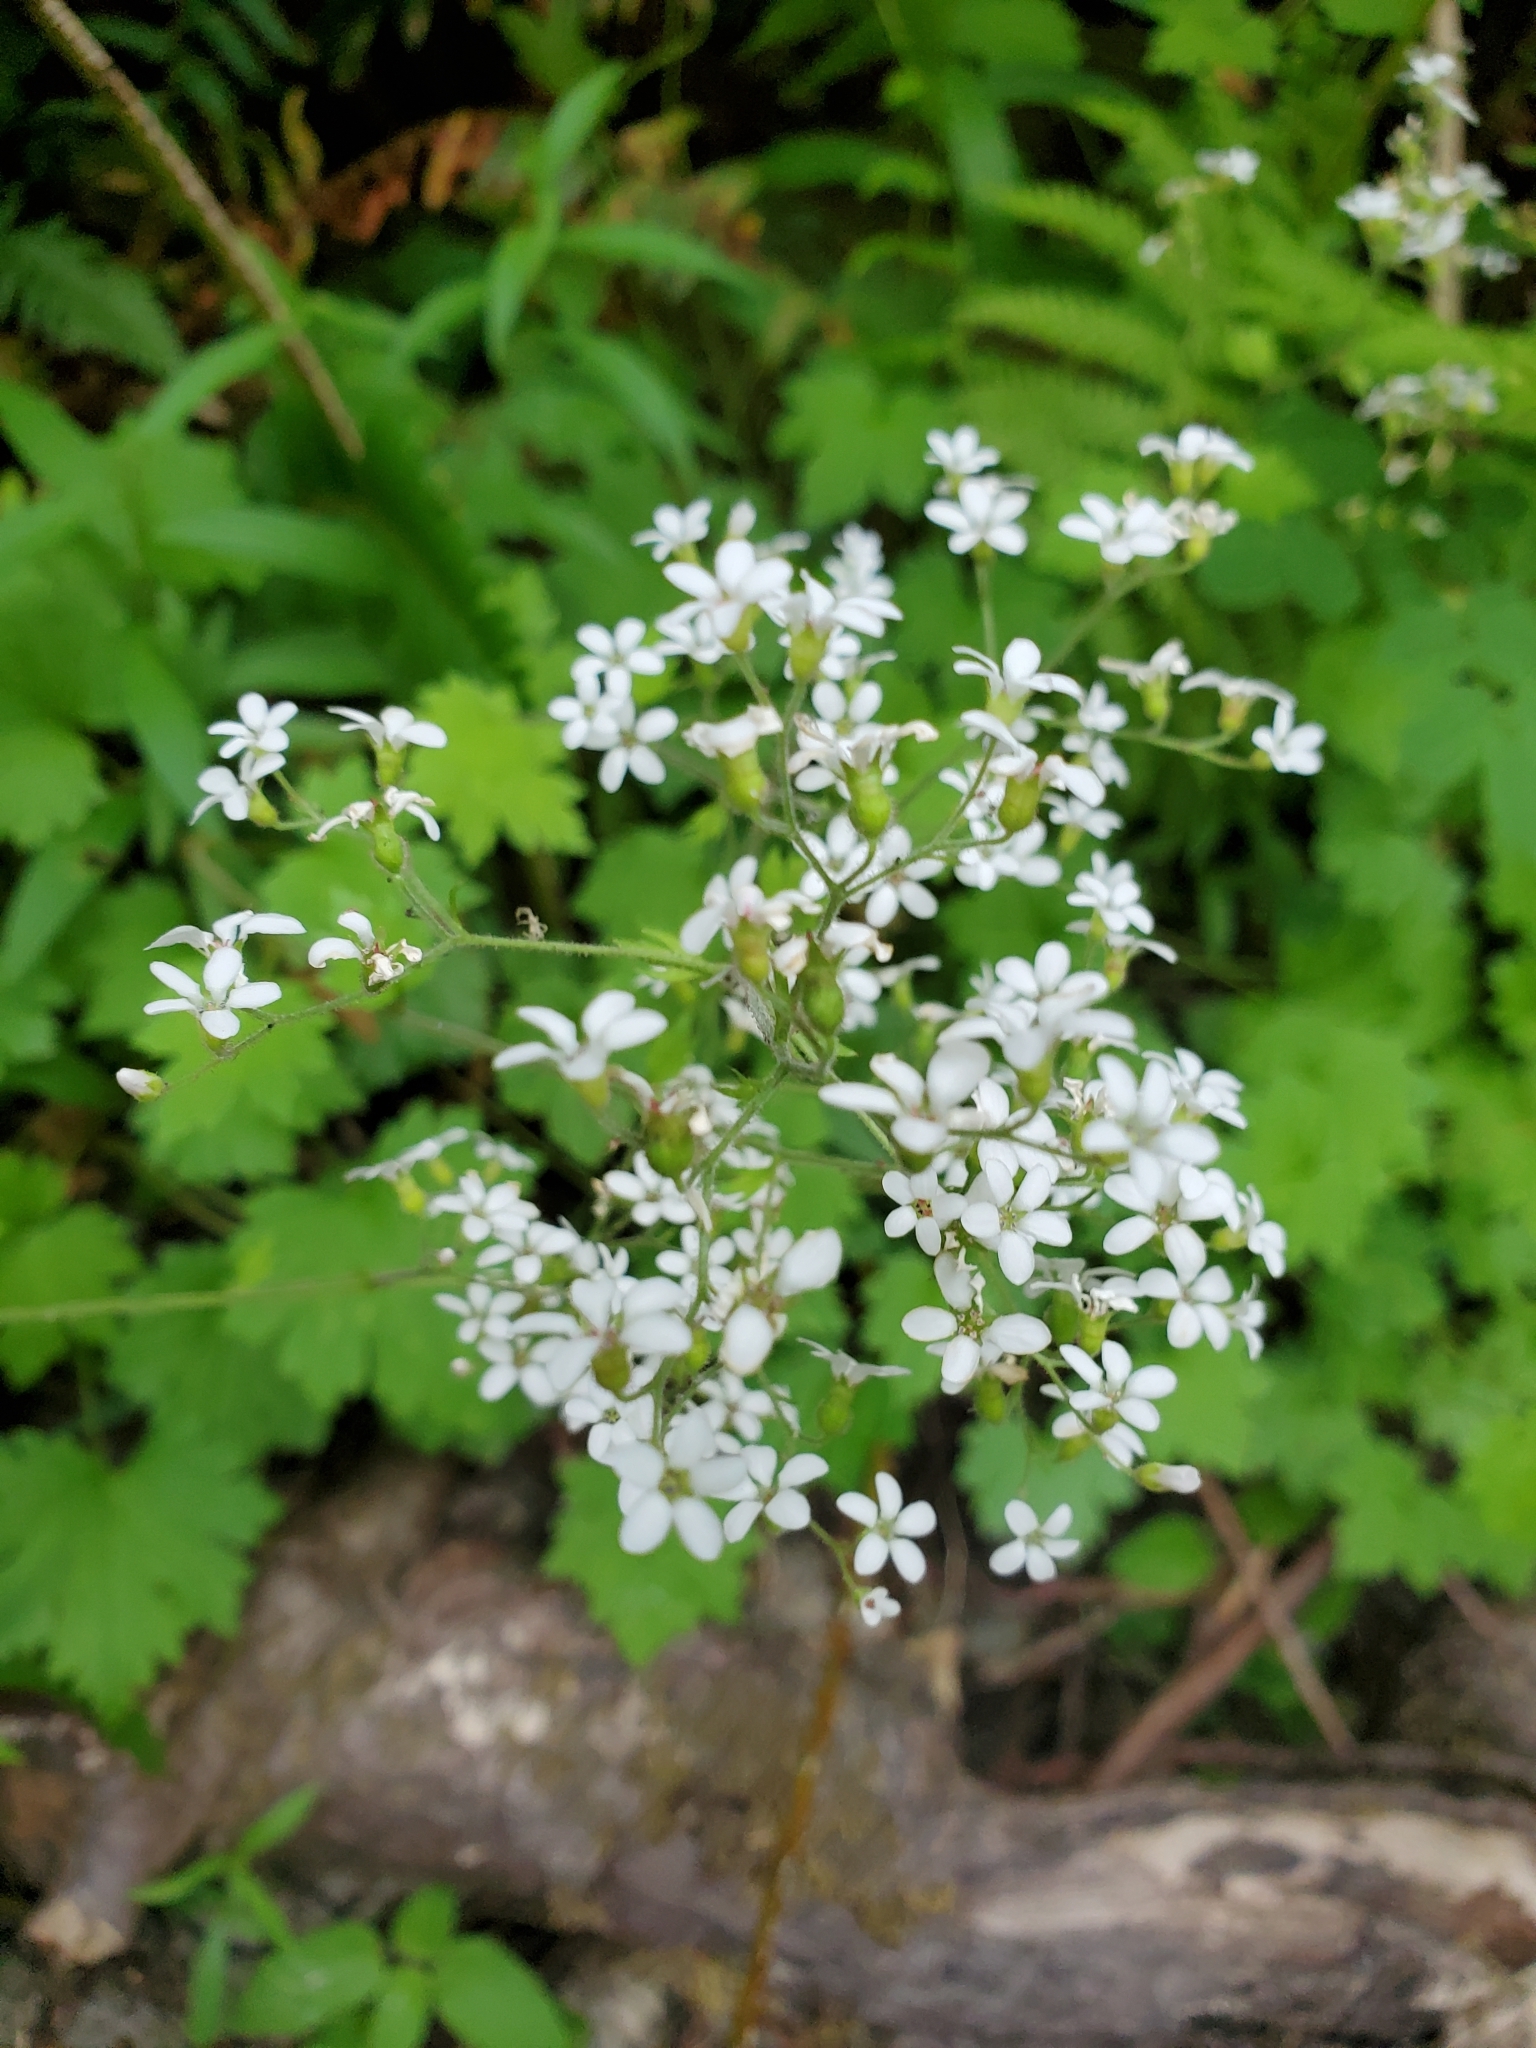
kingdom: Plantae
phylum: Tracheophyta
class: Magnoliopsida
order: Saxifragales
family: Saxifragaceae
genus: Boykinia
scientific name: Boykinia occidentalis
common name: Coast boykinia
